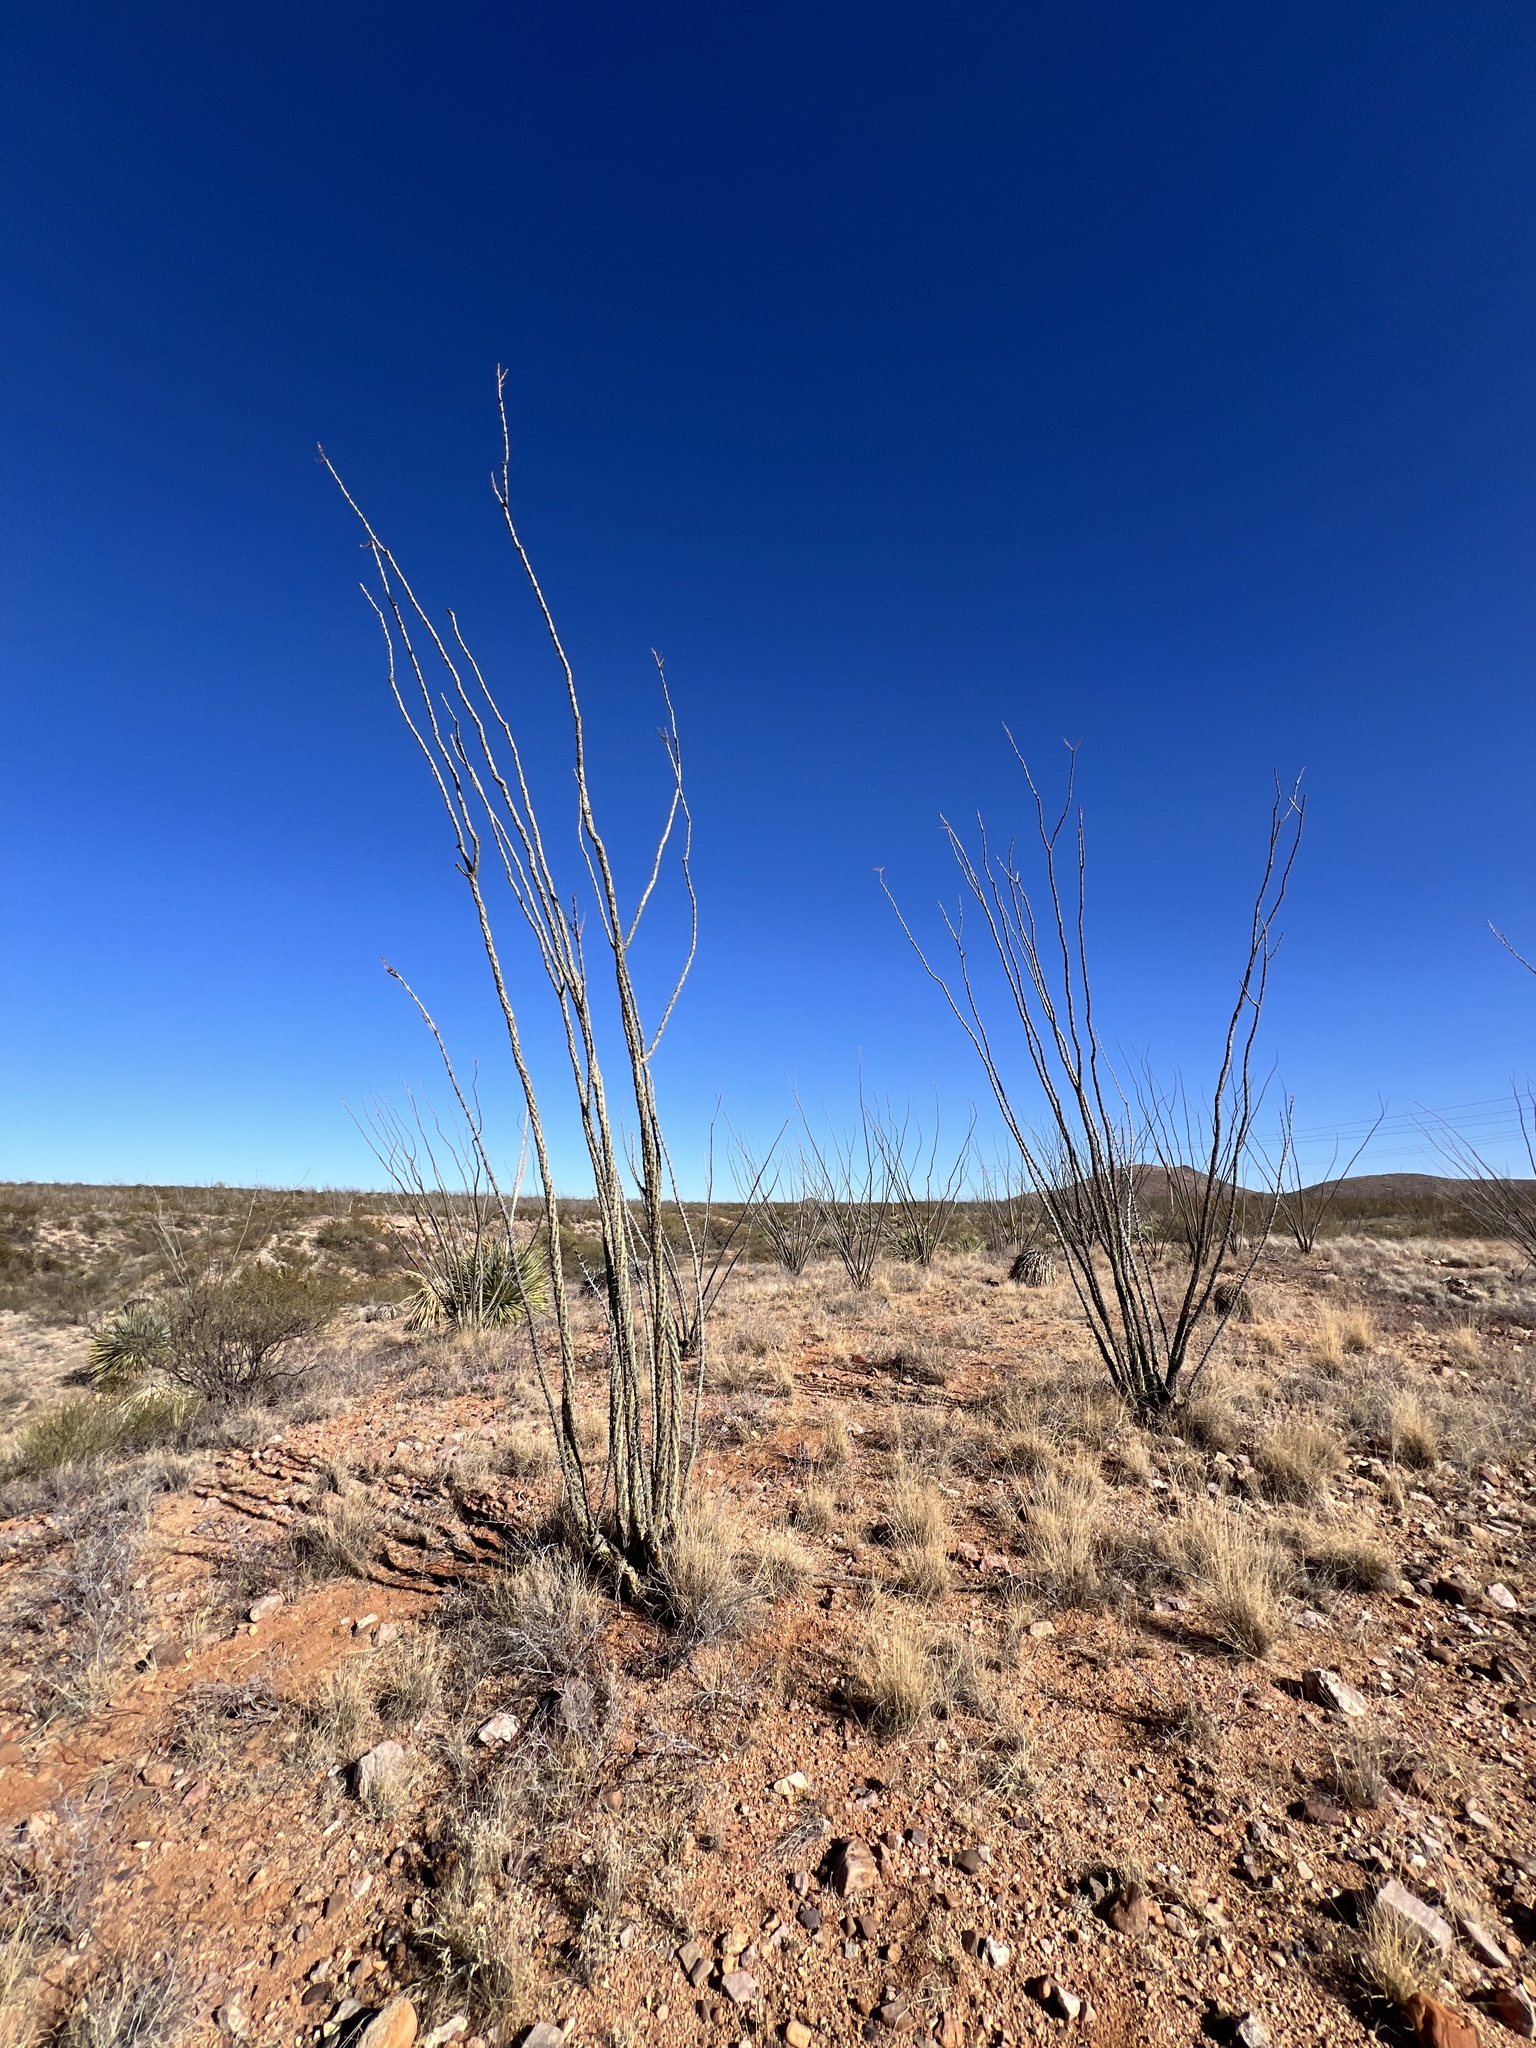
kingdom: Plantae
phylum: Tracheophyta
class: Magnoliopsida
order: Ericales
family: Fouquieriaceae
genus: Fouquieria
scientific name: Fouquieria splendens
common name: Vine-cactus
